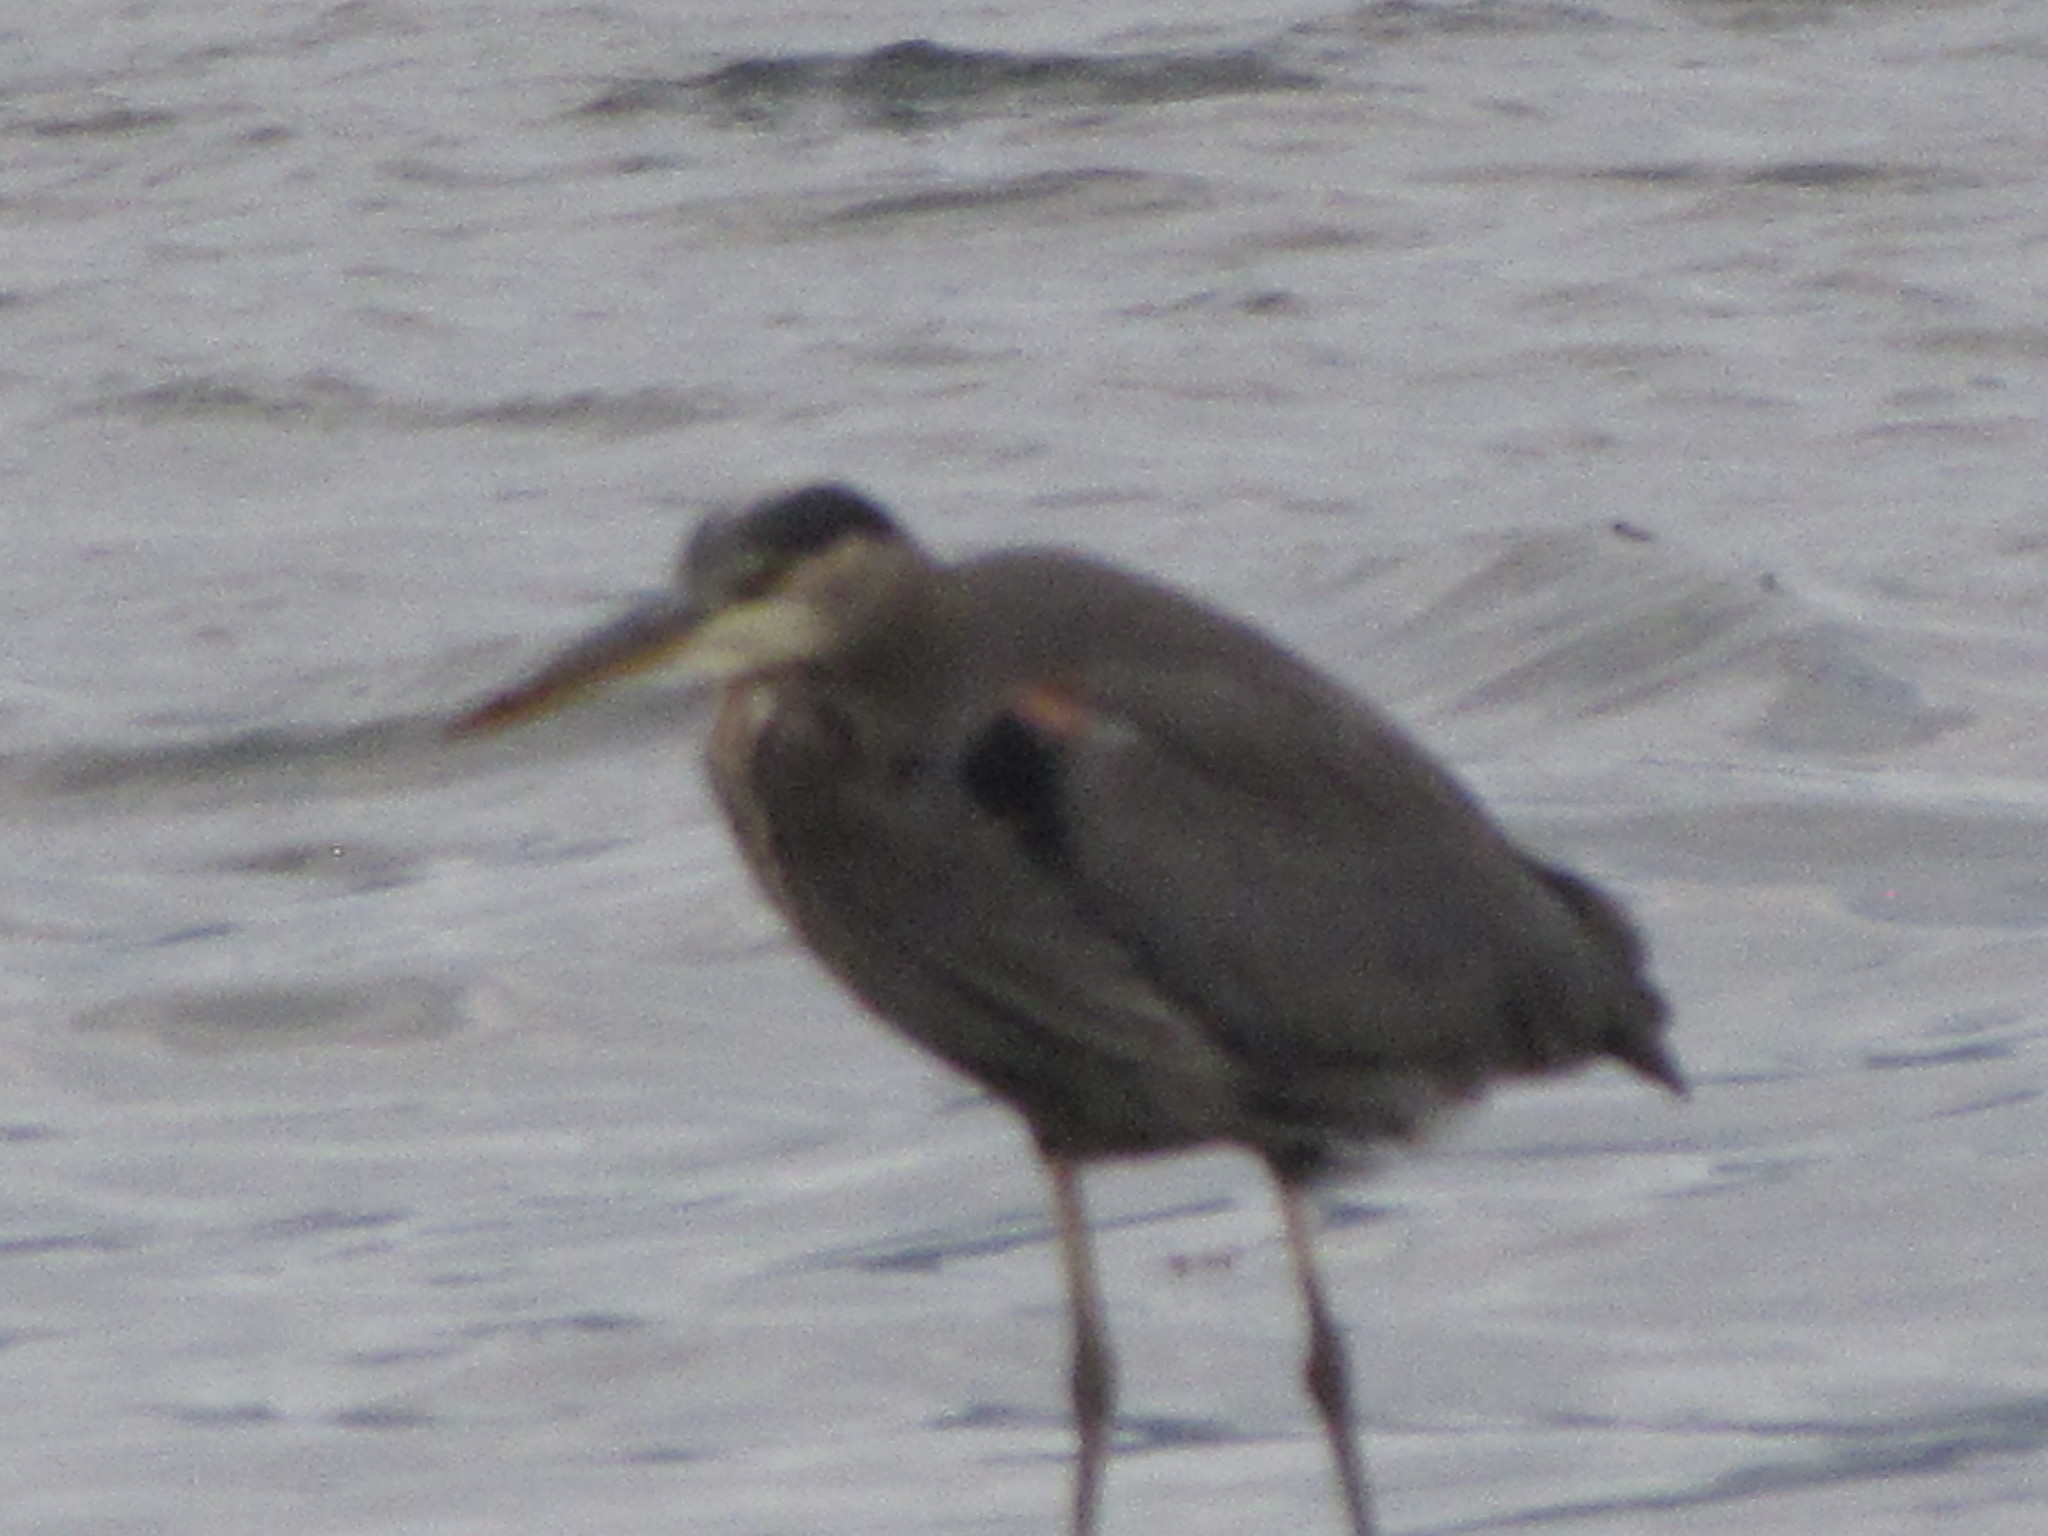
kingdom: Animalia
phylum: Chordata
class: Aves
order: Pelecaniformes
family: Ardeidae
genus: Ardea
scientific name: Ardea herodias
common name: Great blue heron
